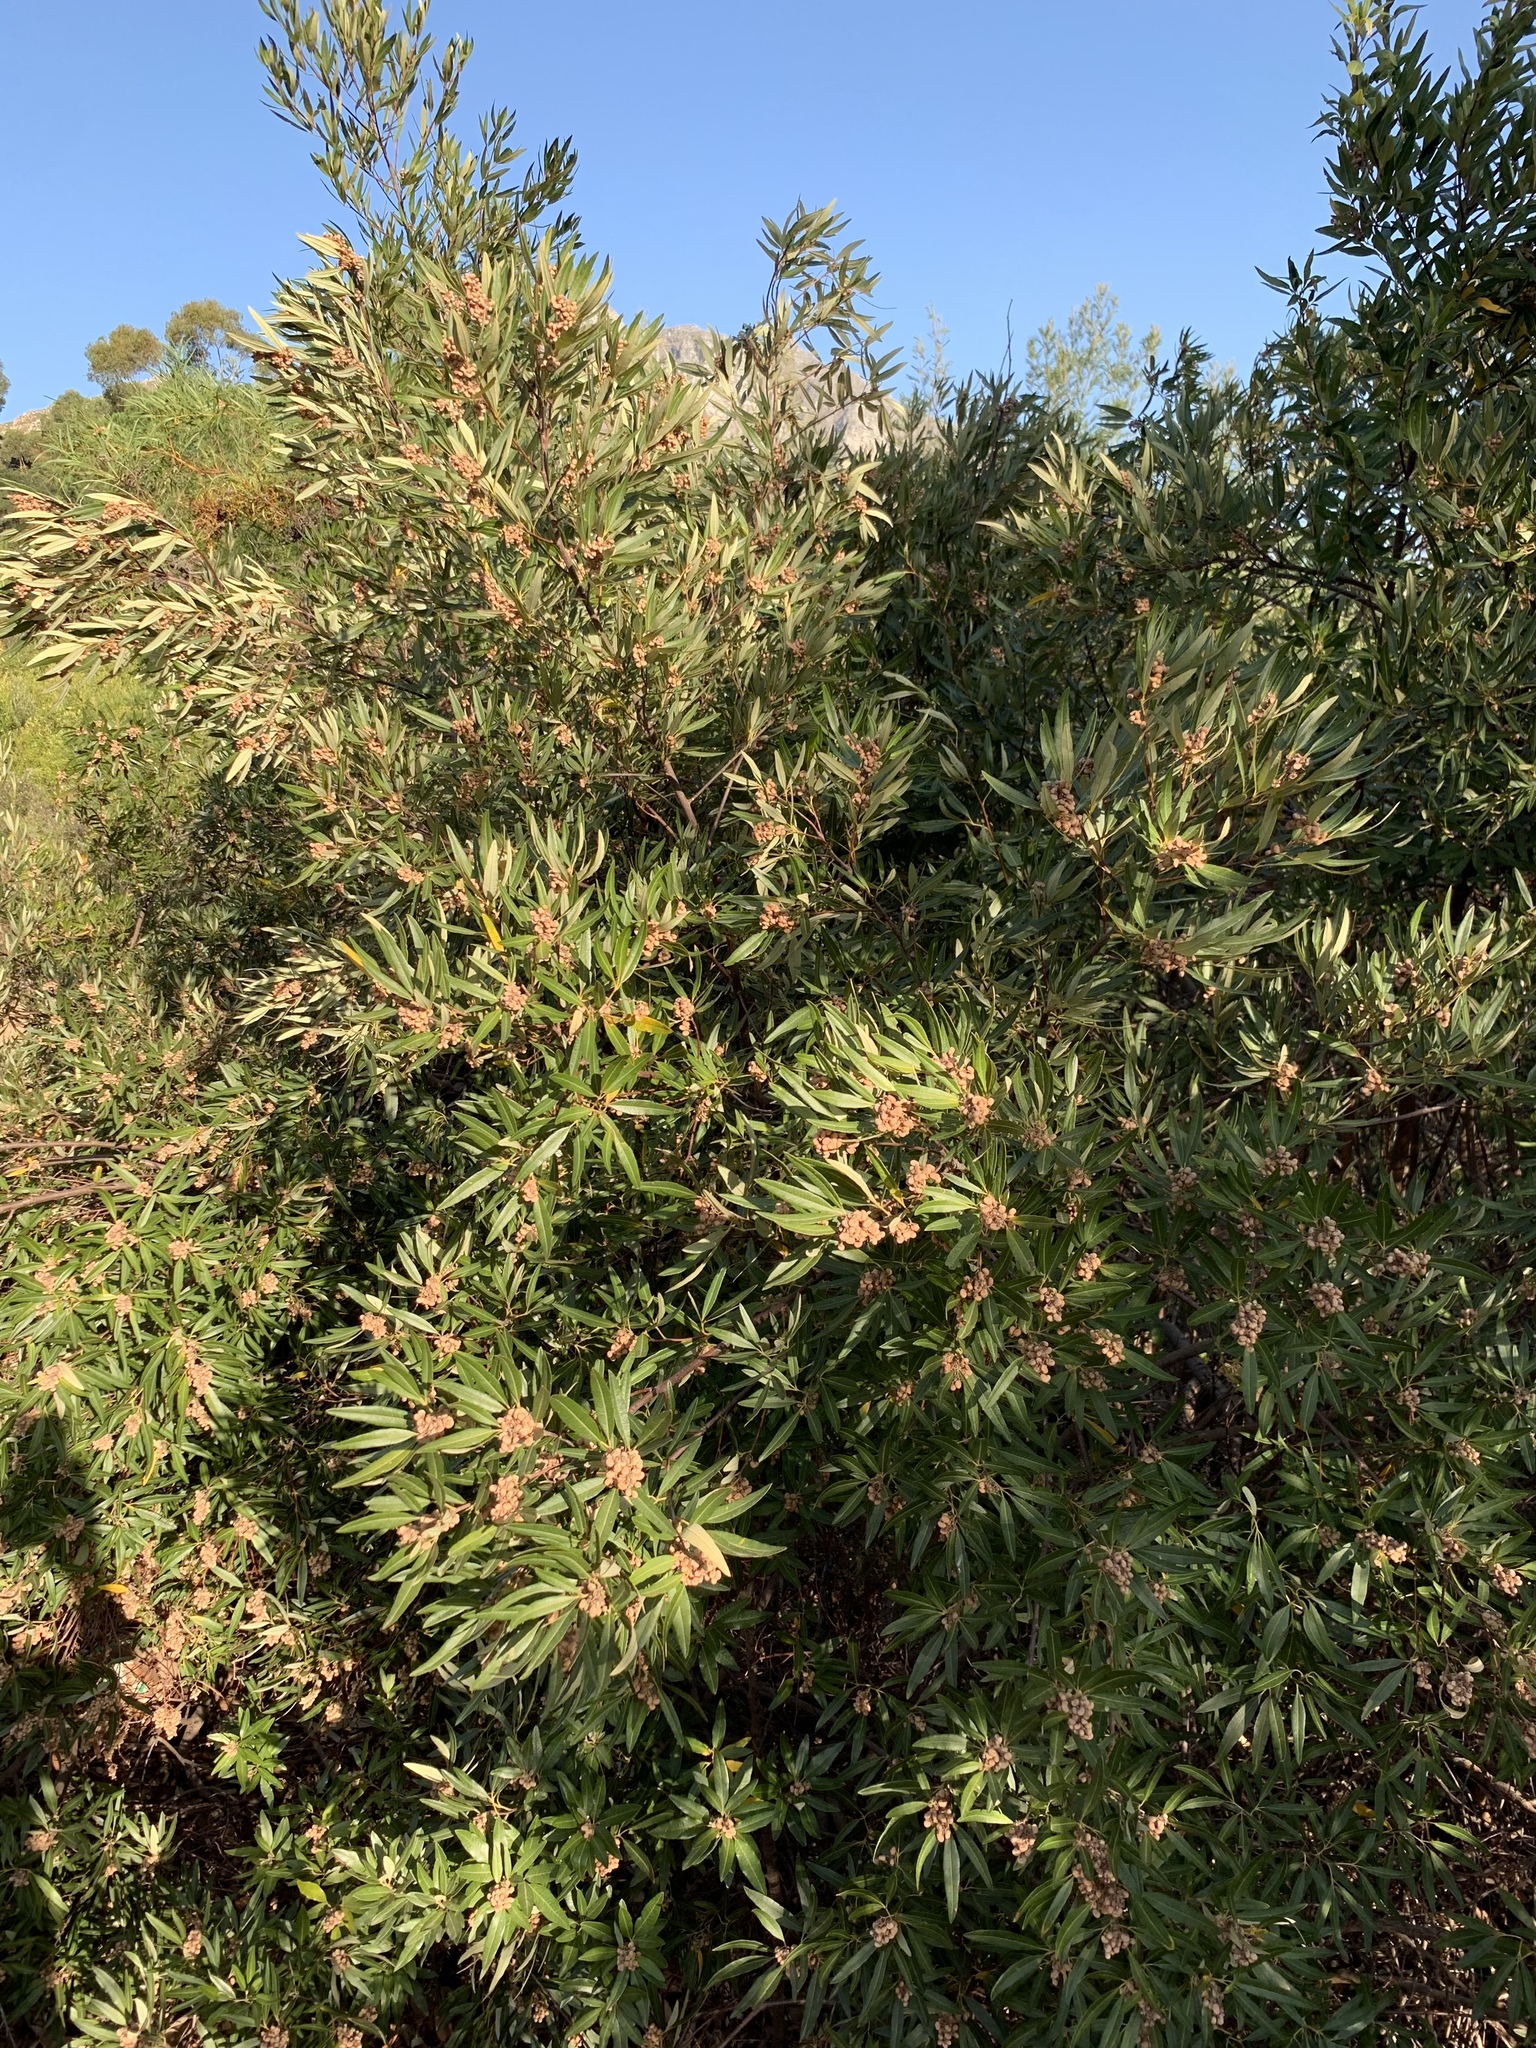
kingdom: Plantae
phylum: Tracheophyta
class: Magnoliopsida
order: Sapindales
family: Anacardiaceae
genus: Searsia
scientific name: Searsia angustifolia
